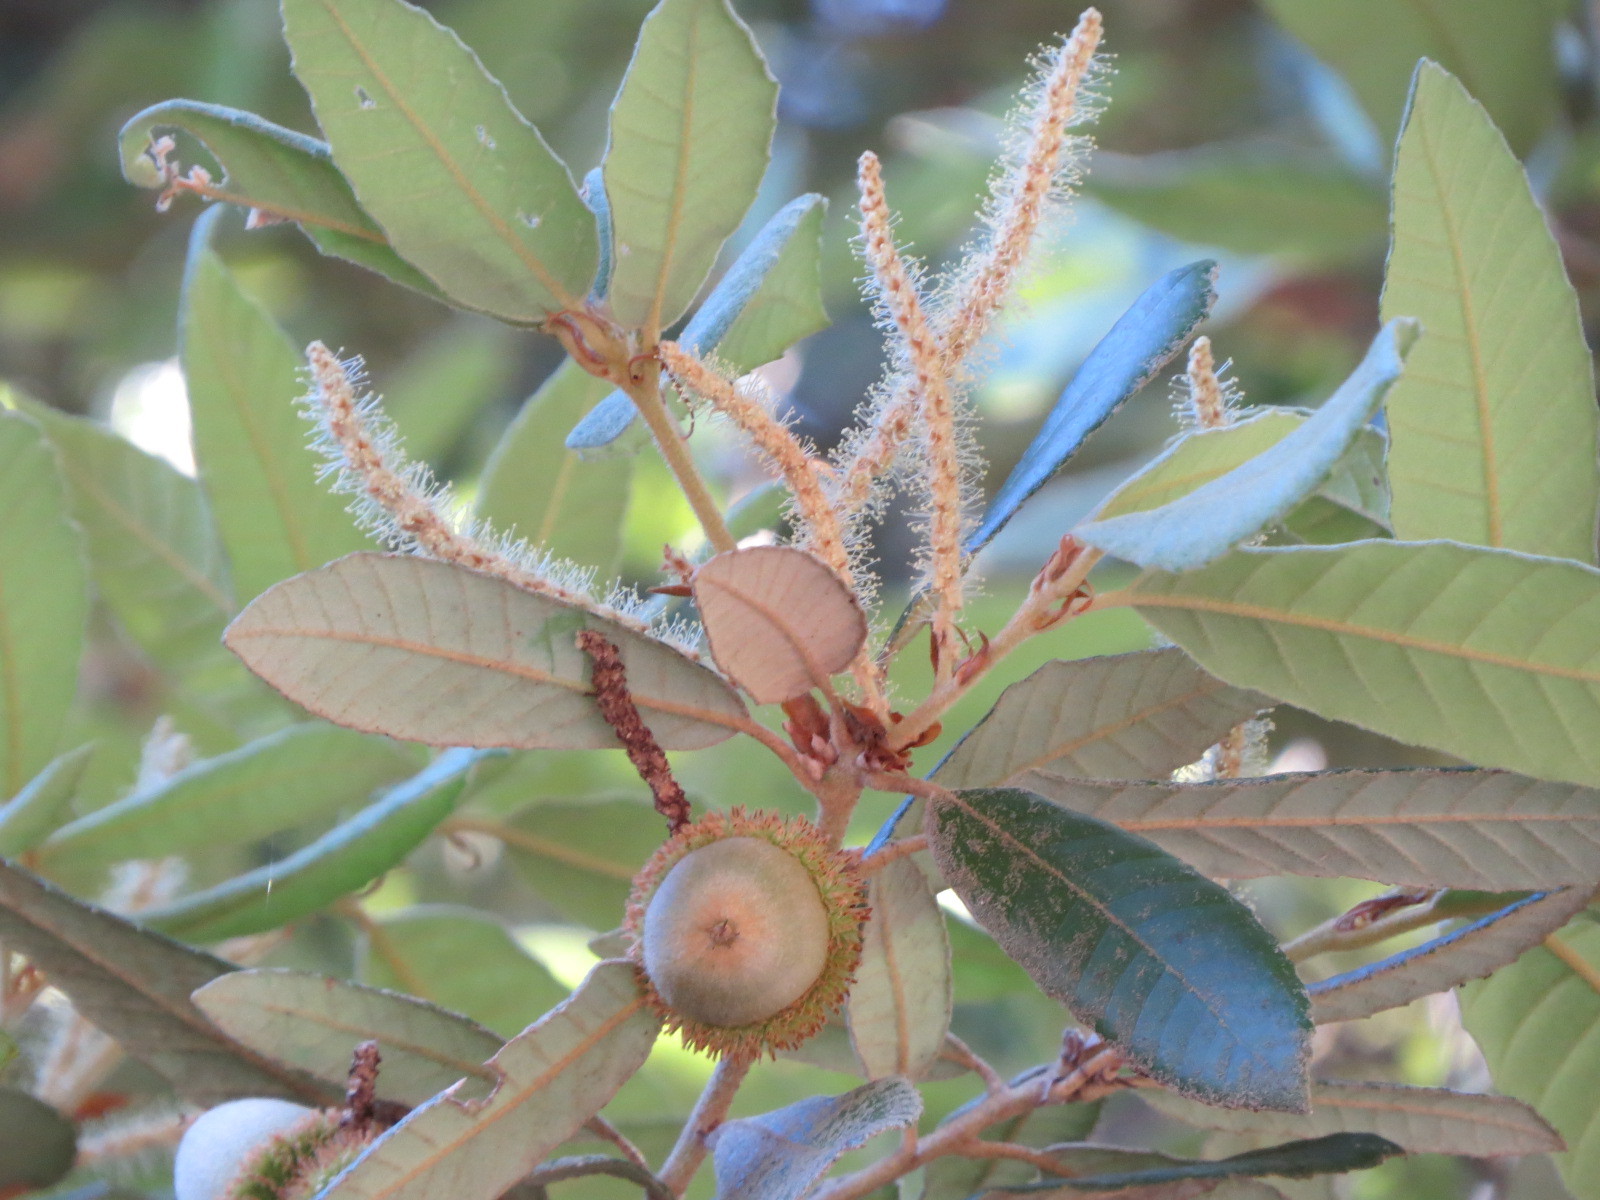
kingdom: Plantae
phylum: Tracheophyta
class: Magnoliopsida
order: Fagales
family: Fagaceae
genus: Notholithocarpus
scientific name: Notholithocarpus densiflorus
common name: Tan bark oak
